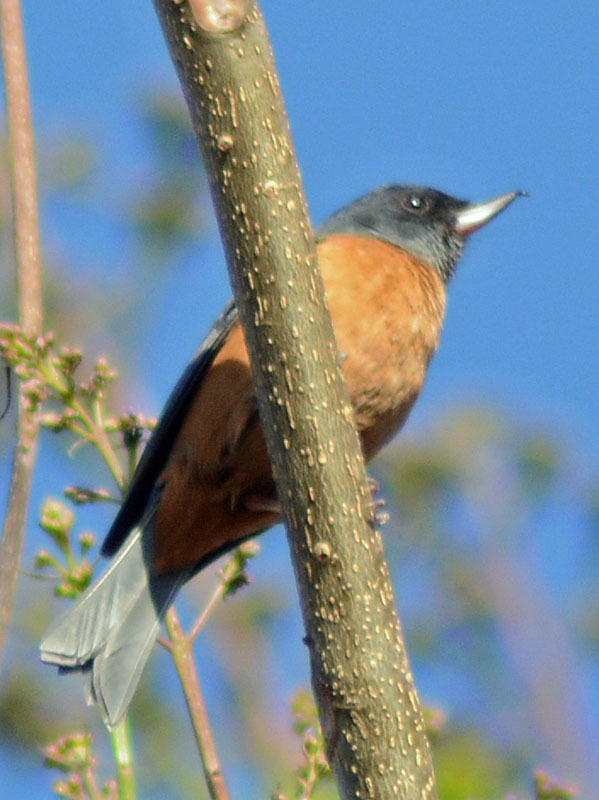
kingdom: Animalia
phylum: Chordata
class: Aves
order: Passeriformes
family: Thraupidae
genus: Diglossa
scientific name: Diglossa baritula
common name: Cinnamon-bellied flowerpiercer
